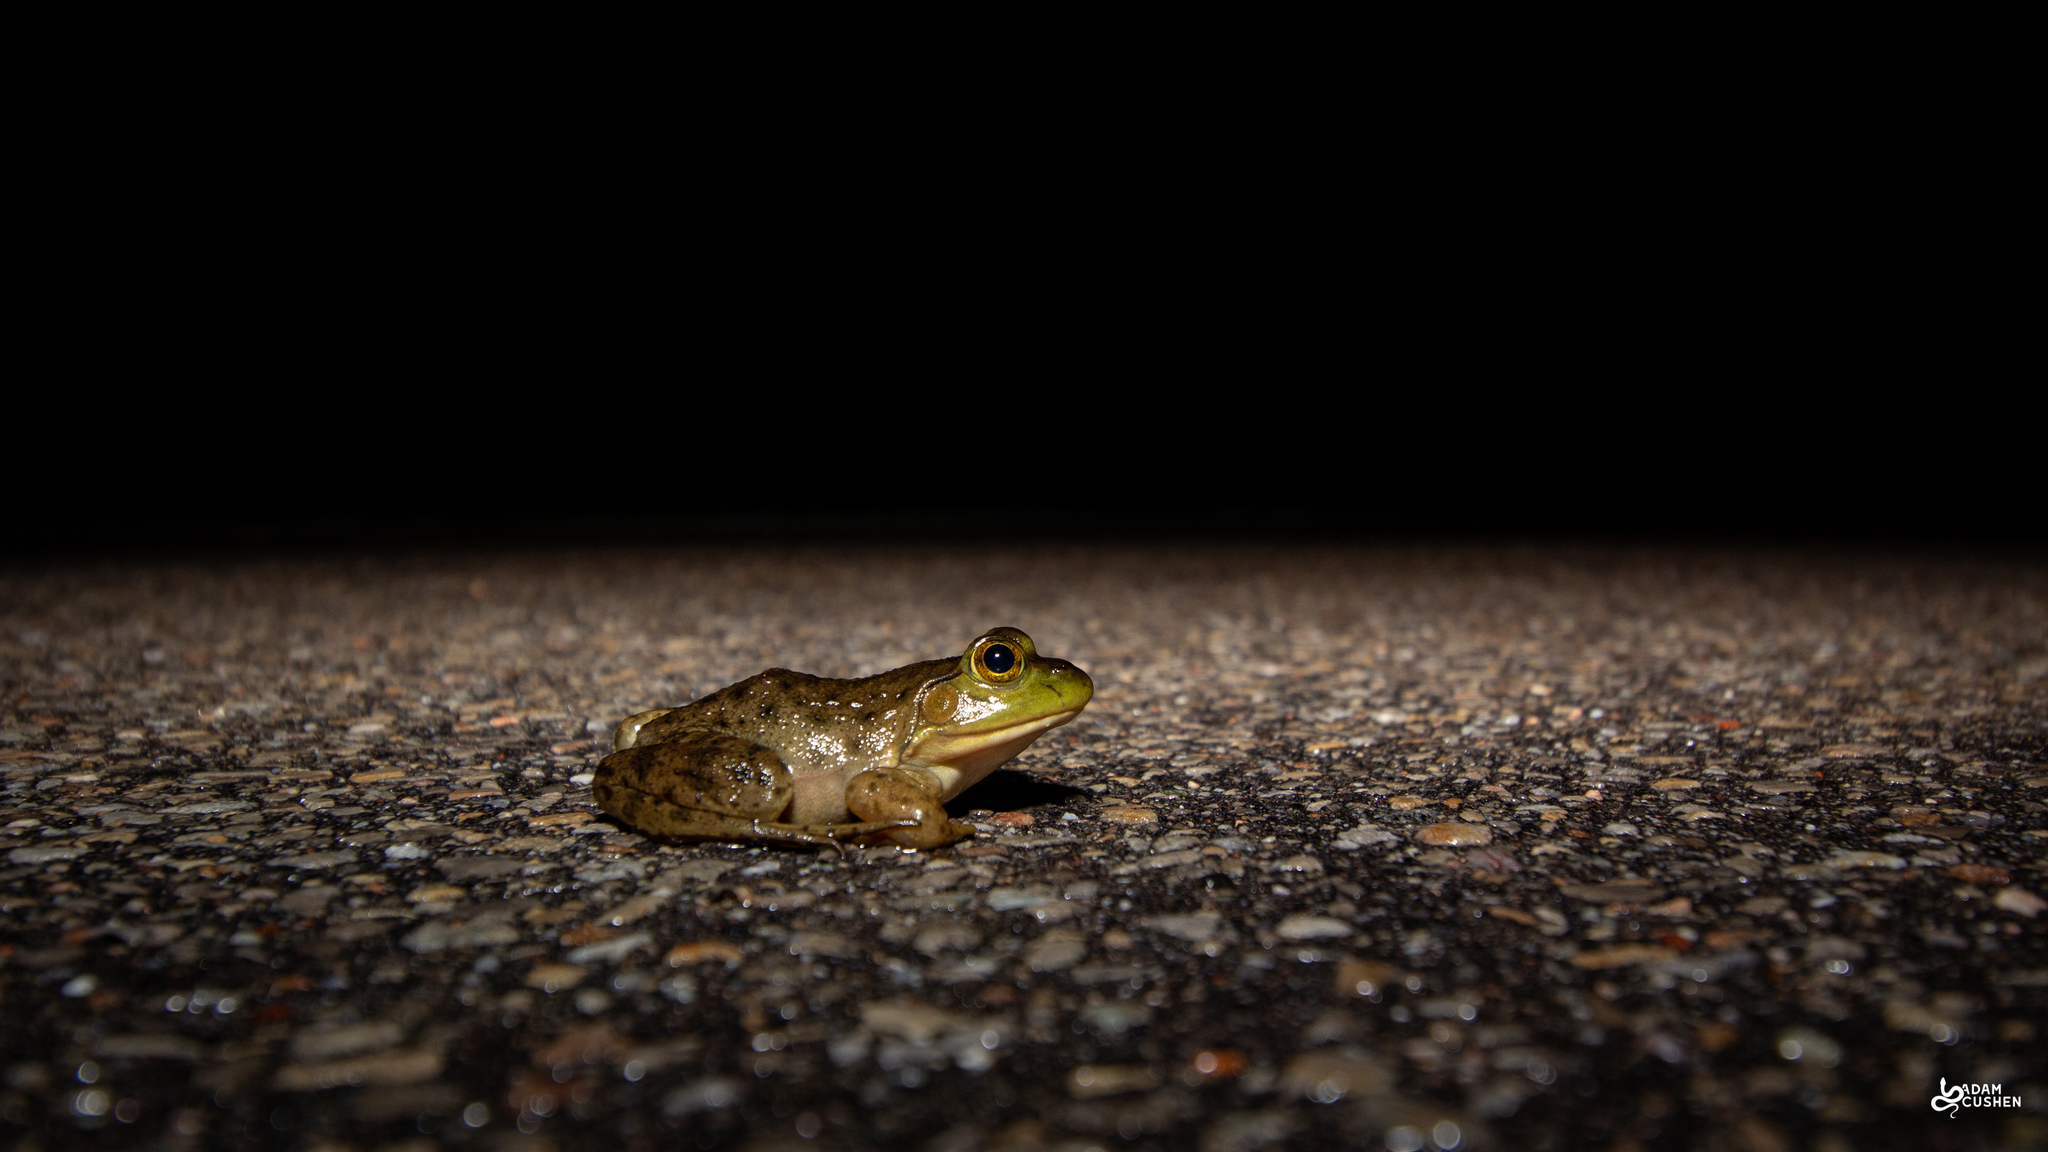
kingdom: Animalia
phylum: Chordata
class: Amphibia
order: Anura
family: Ranidae
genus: Lithobates
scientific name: Lithobates catesbeianus
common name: American bullfrog
